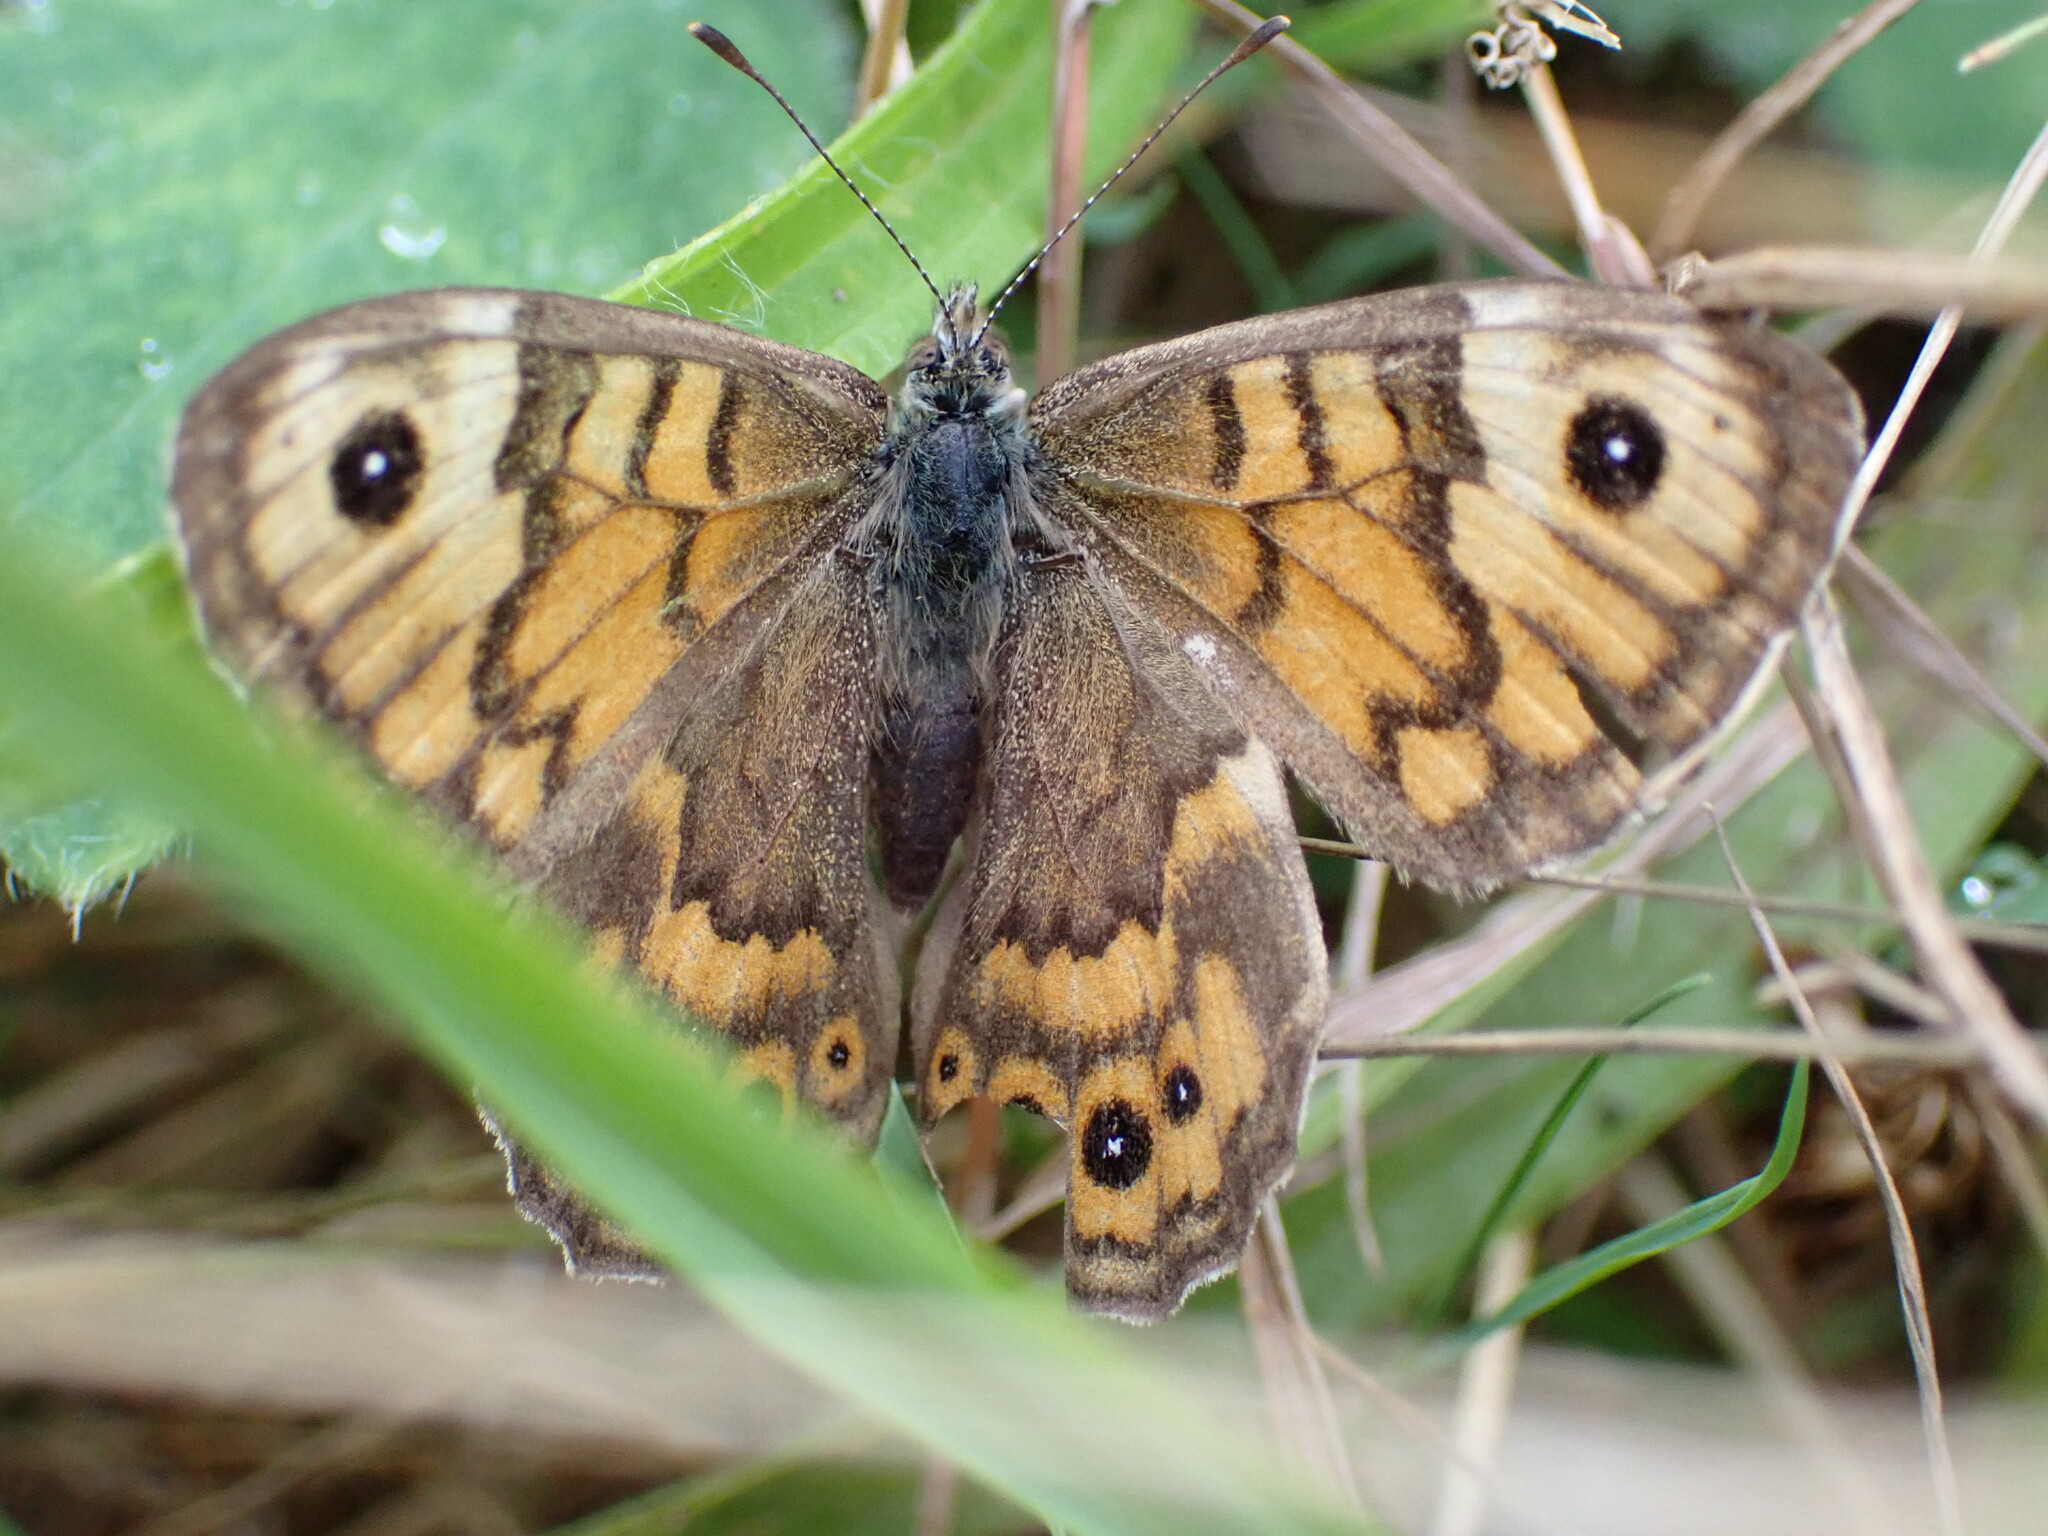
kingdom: Animalia
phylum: Arthropoda
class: Insecta
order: Lepidoptera
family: Nymphalidae
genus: Pararge
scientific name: Pararge Lasiommata megera
